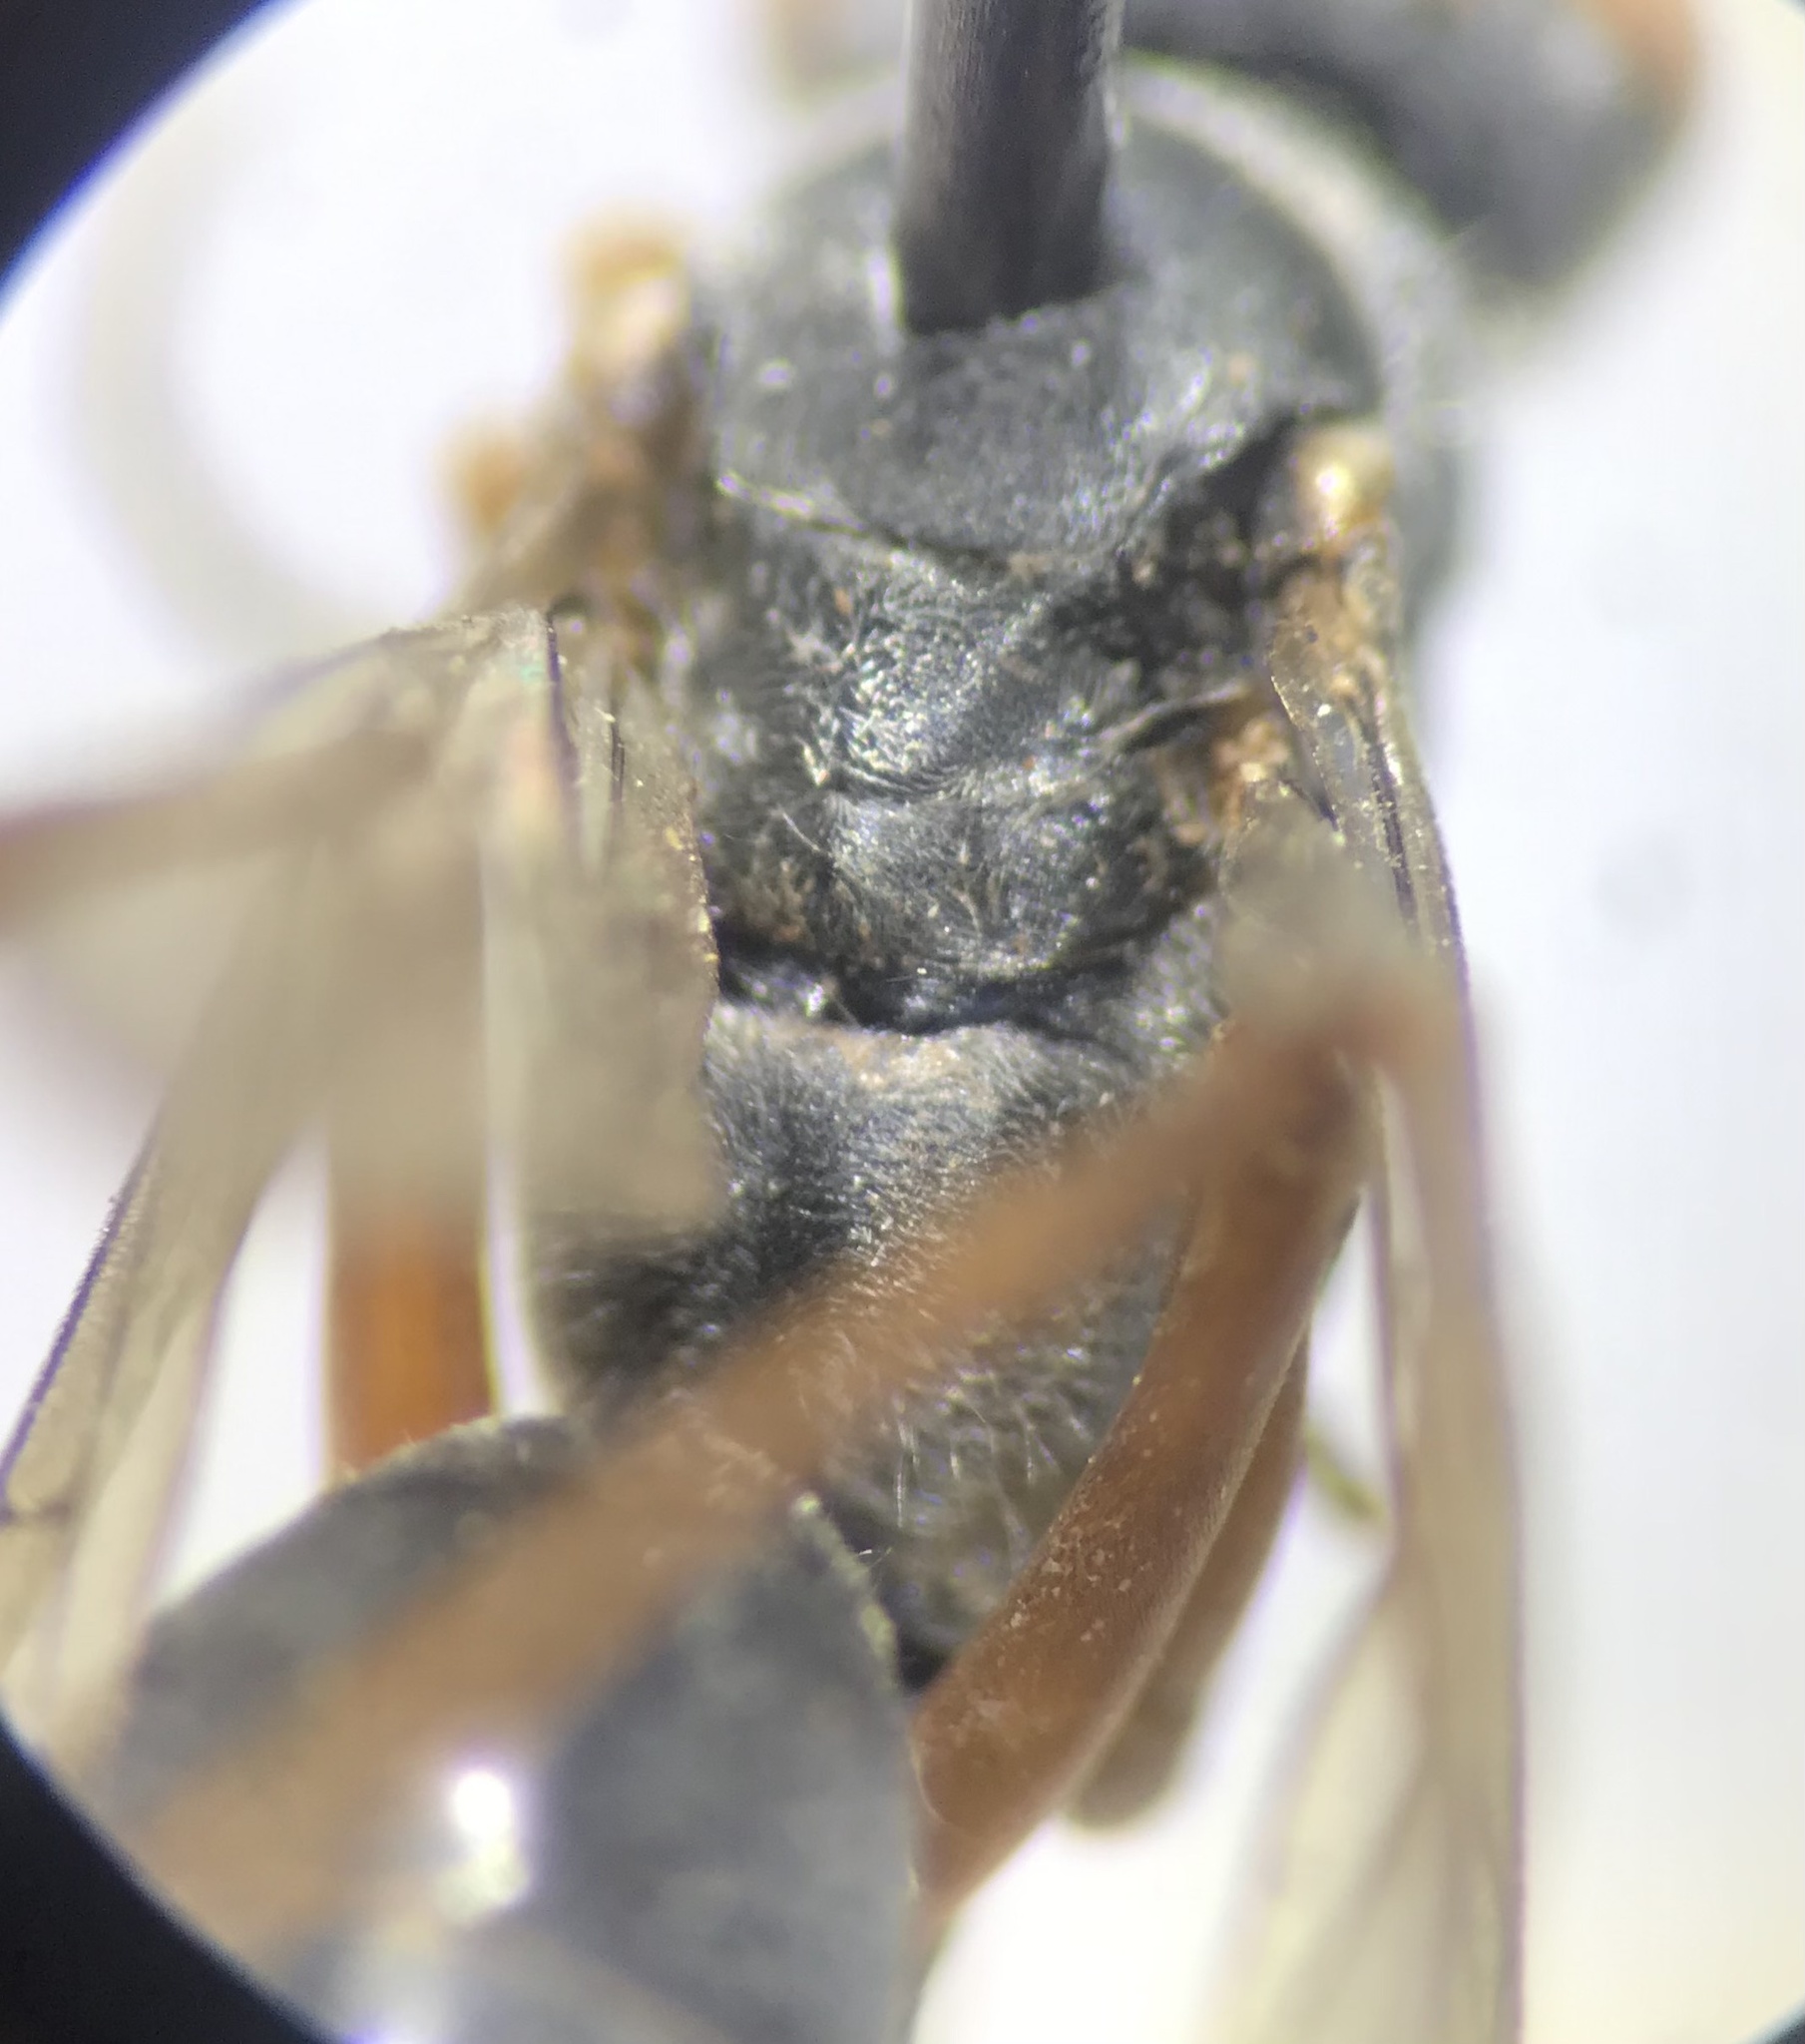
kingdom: Animalia
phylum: Arthropoda
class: Insecta
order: Hymenoptera
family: Pompilidae
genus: Auplopus
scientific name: Auplopus mellipes
